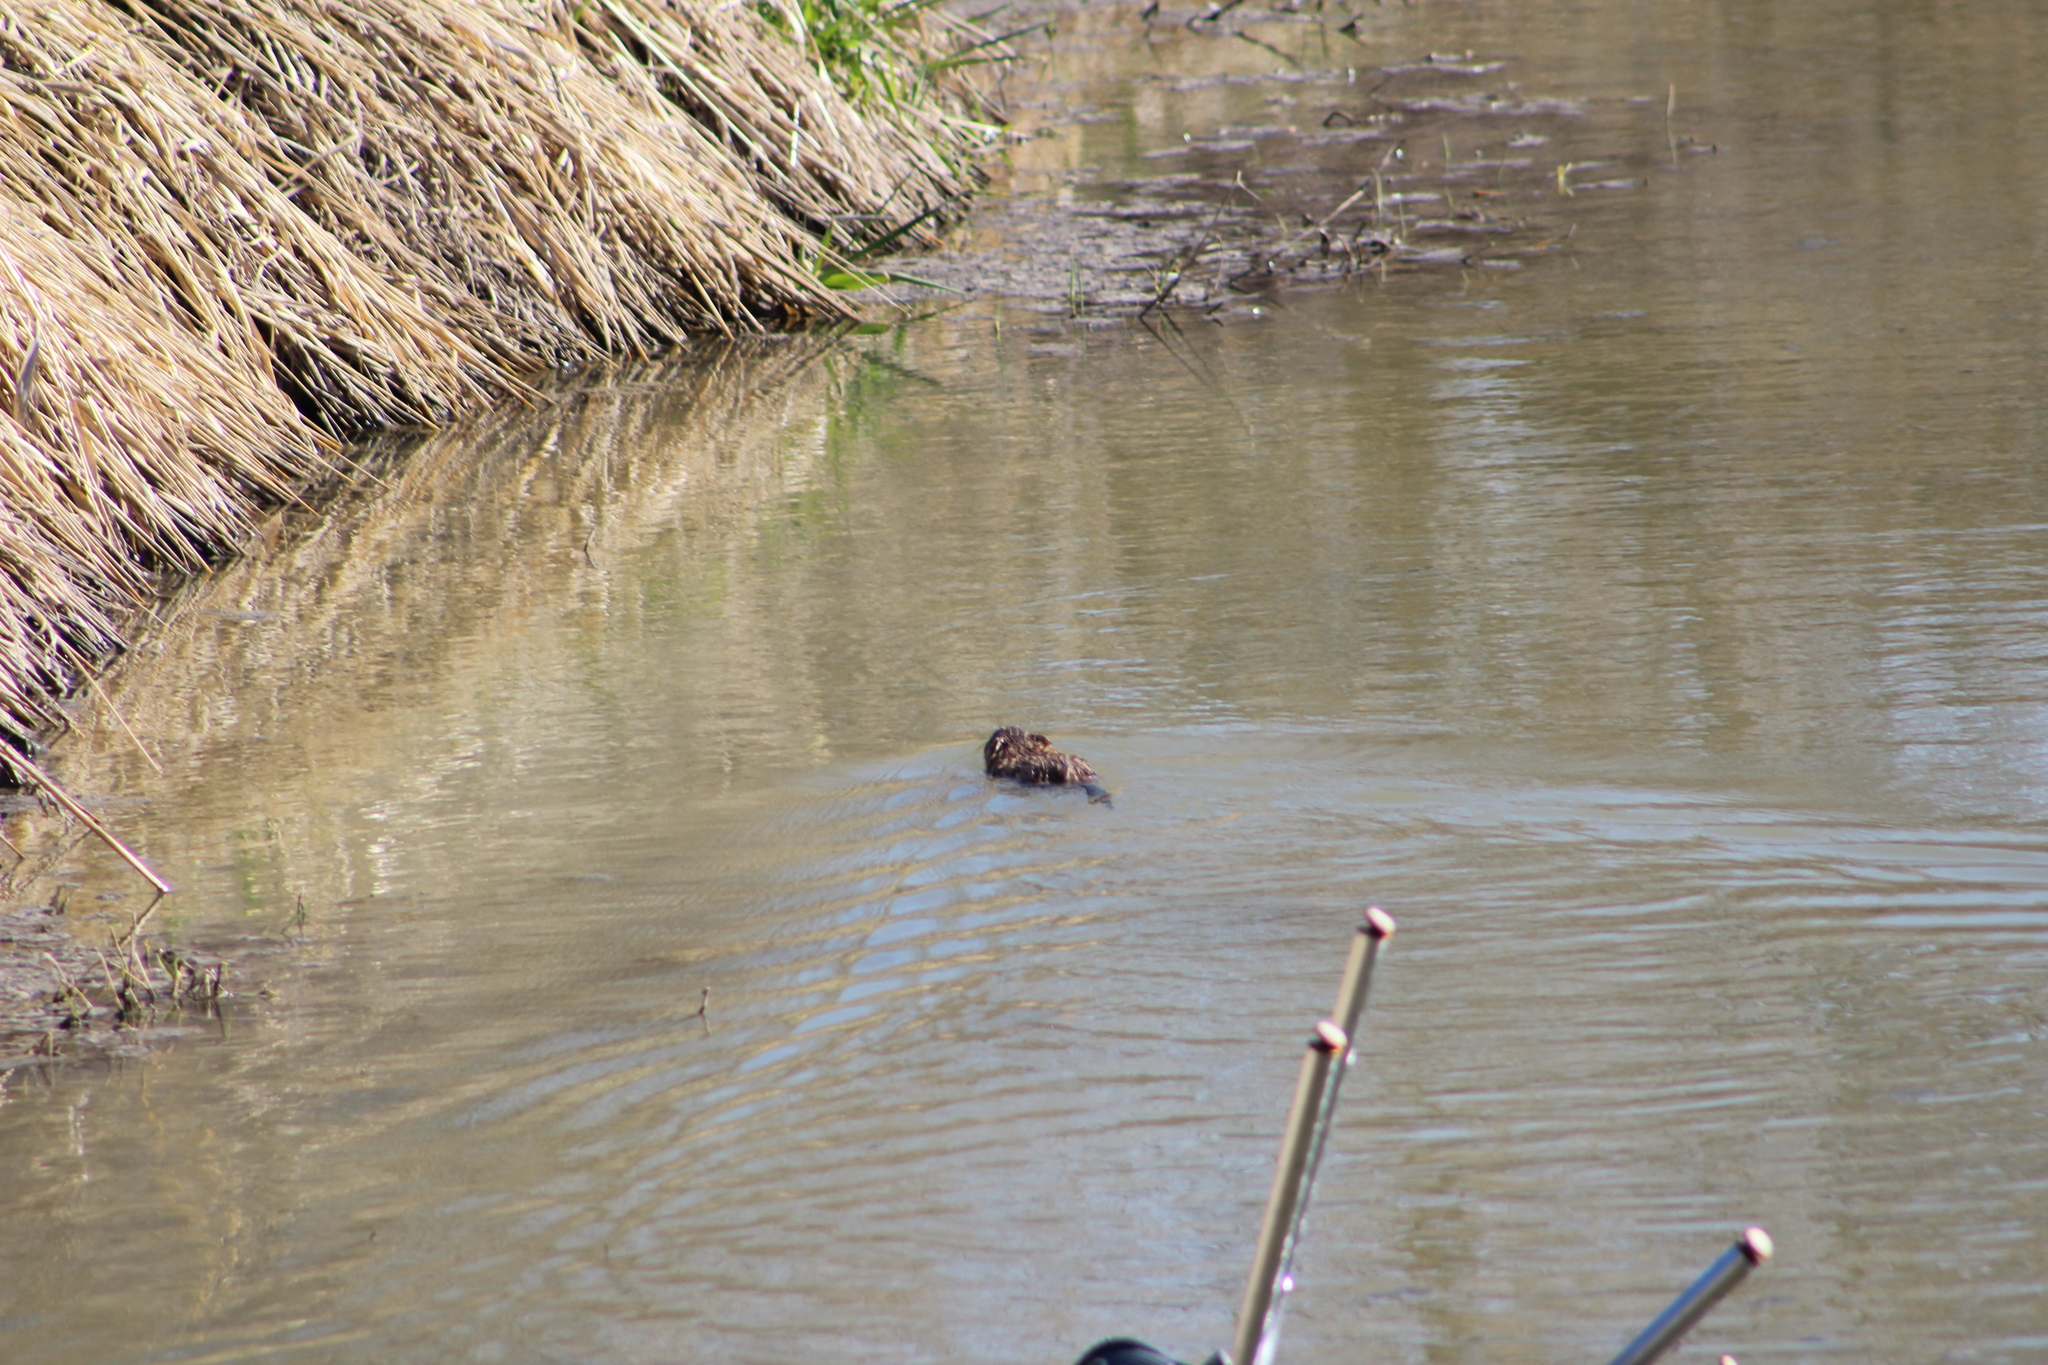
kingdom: Animalia
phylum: Chordata
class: Mammalia
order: Rodentia
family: Cricetidae
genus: Ondatra
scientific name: Ondatra zibethicus
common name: Muskrat
